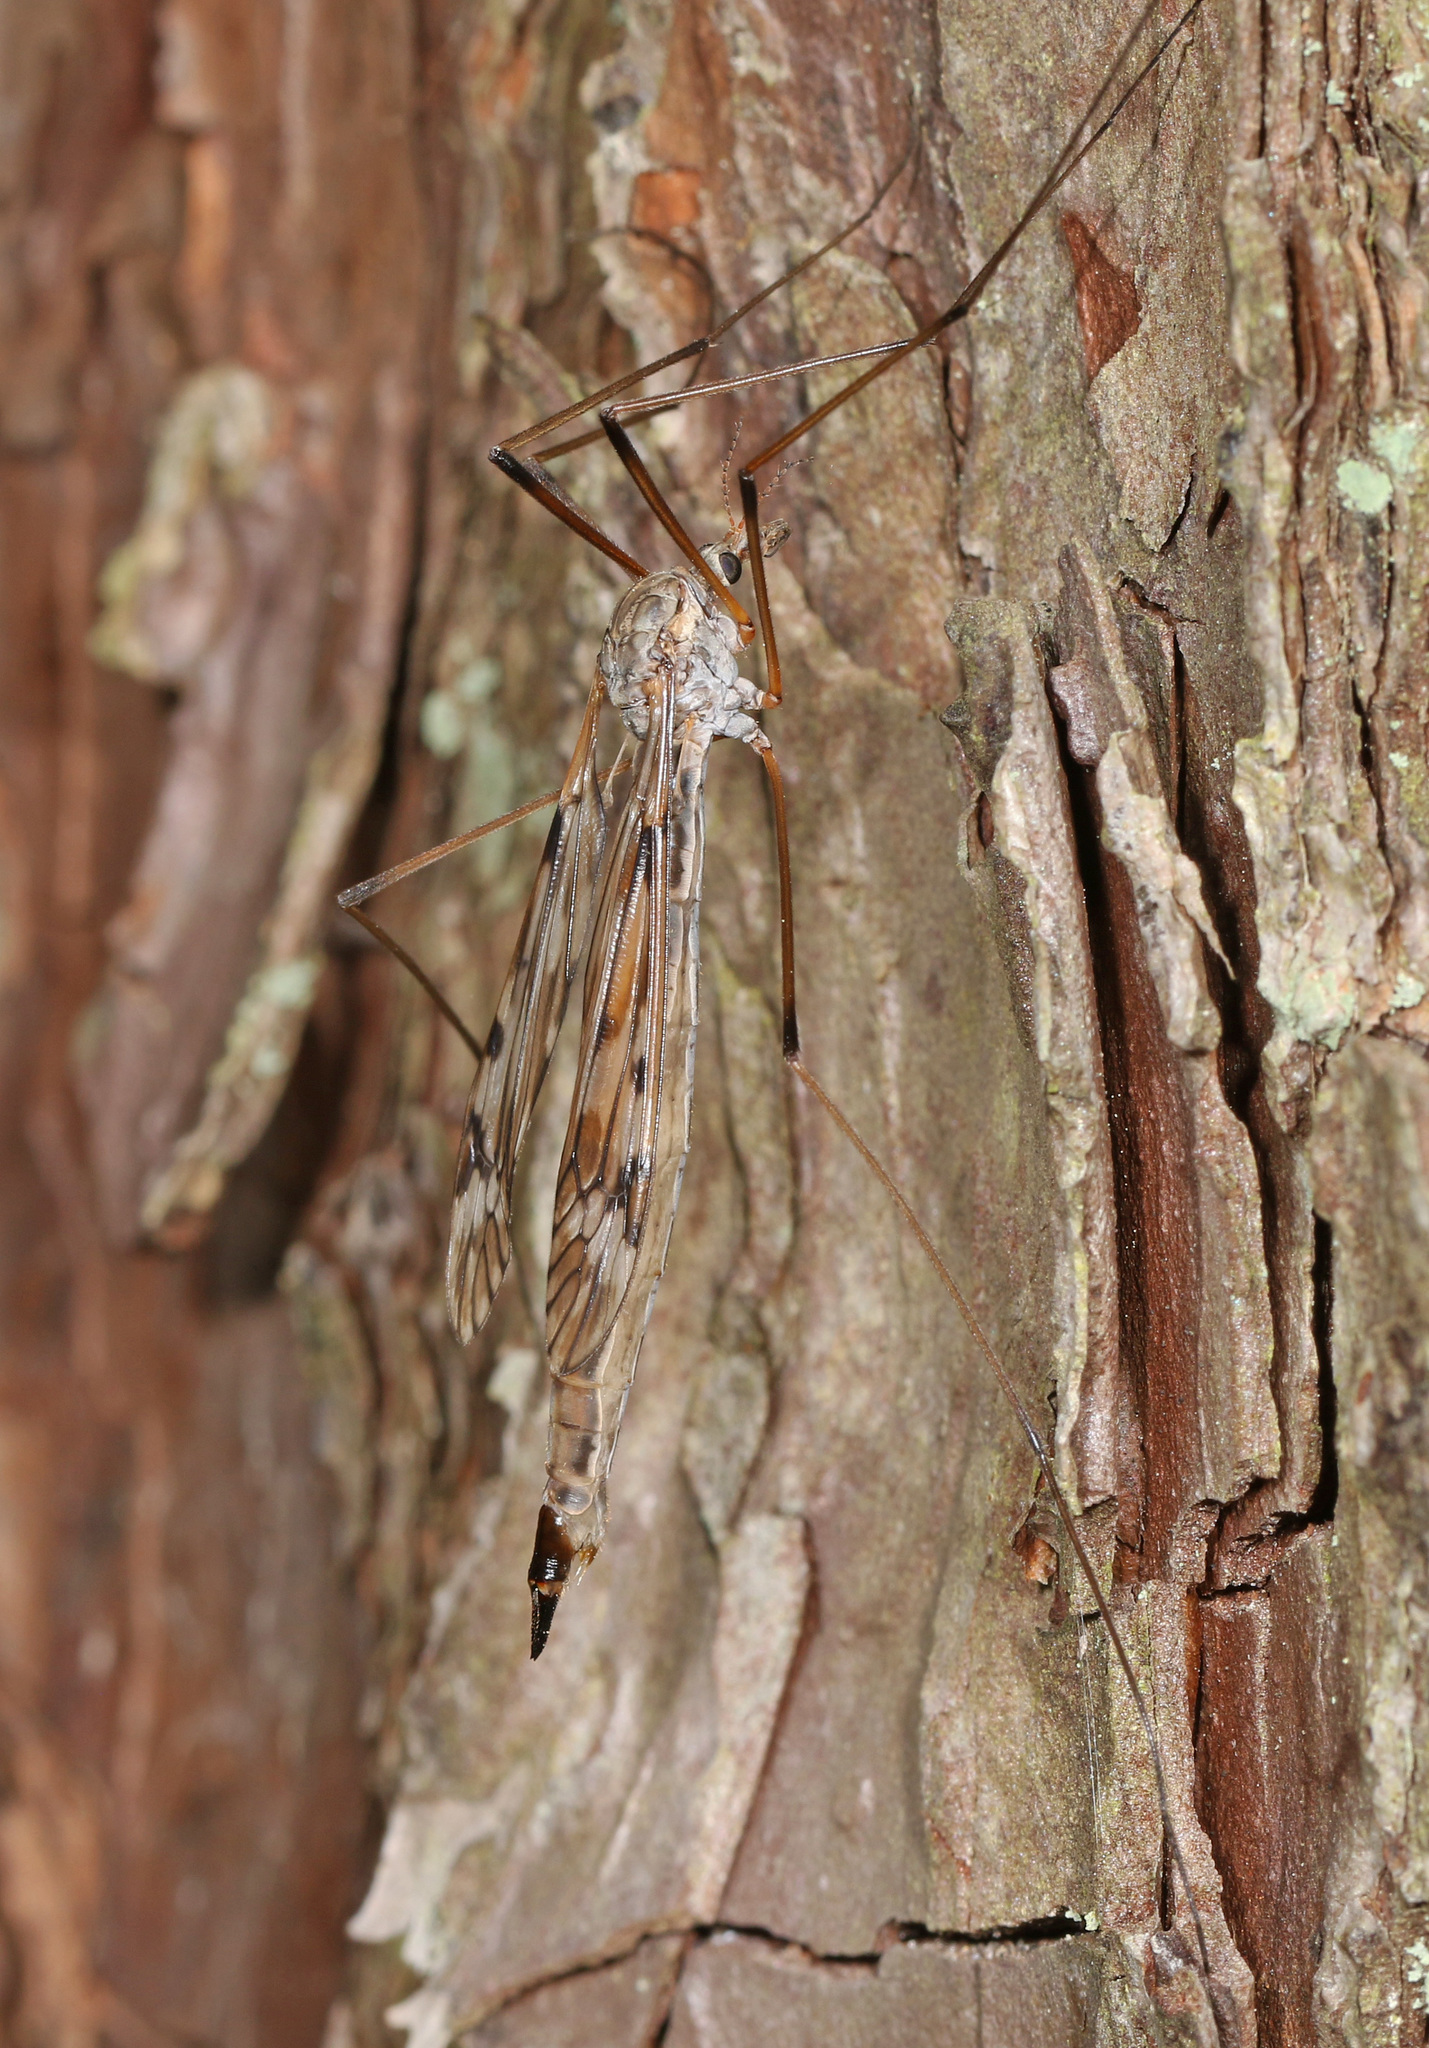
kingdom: Animalia
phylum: Arthropoda
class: Insecta
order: Diptera
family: Tipulidae
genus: Tipula
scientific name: Tipula longiventris
